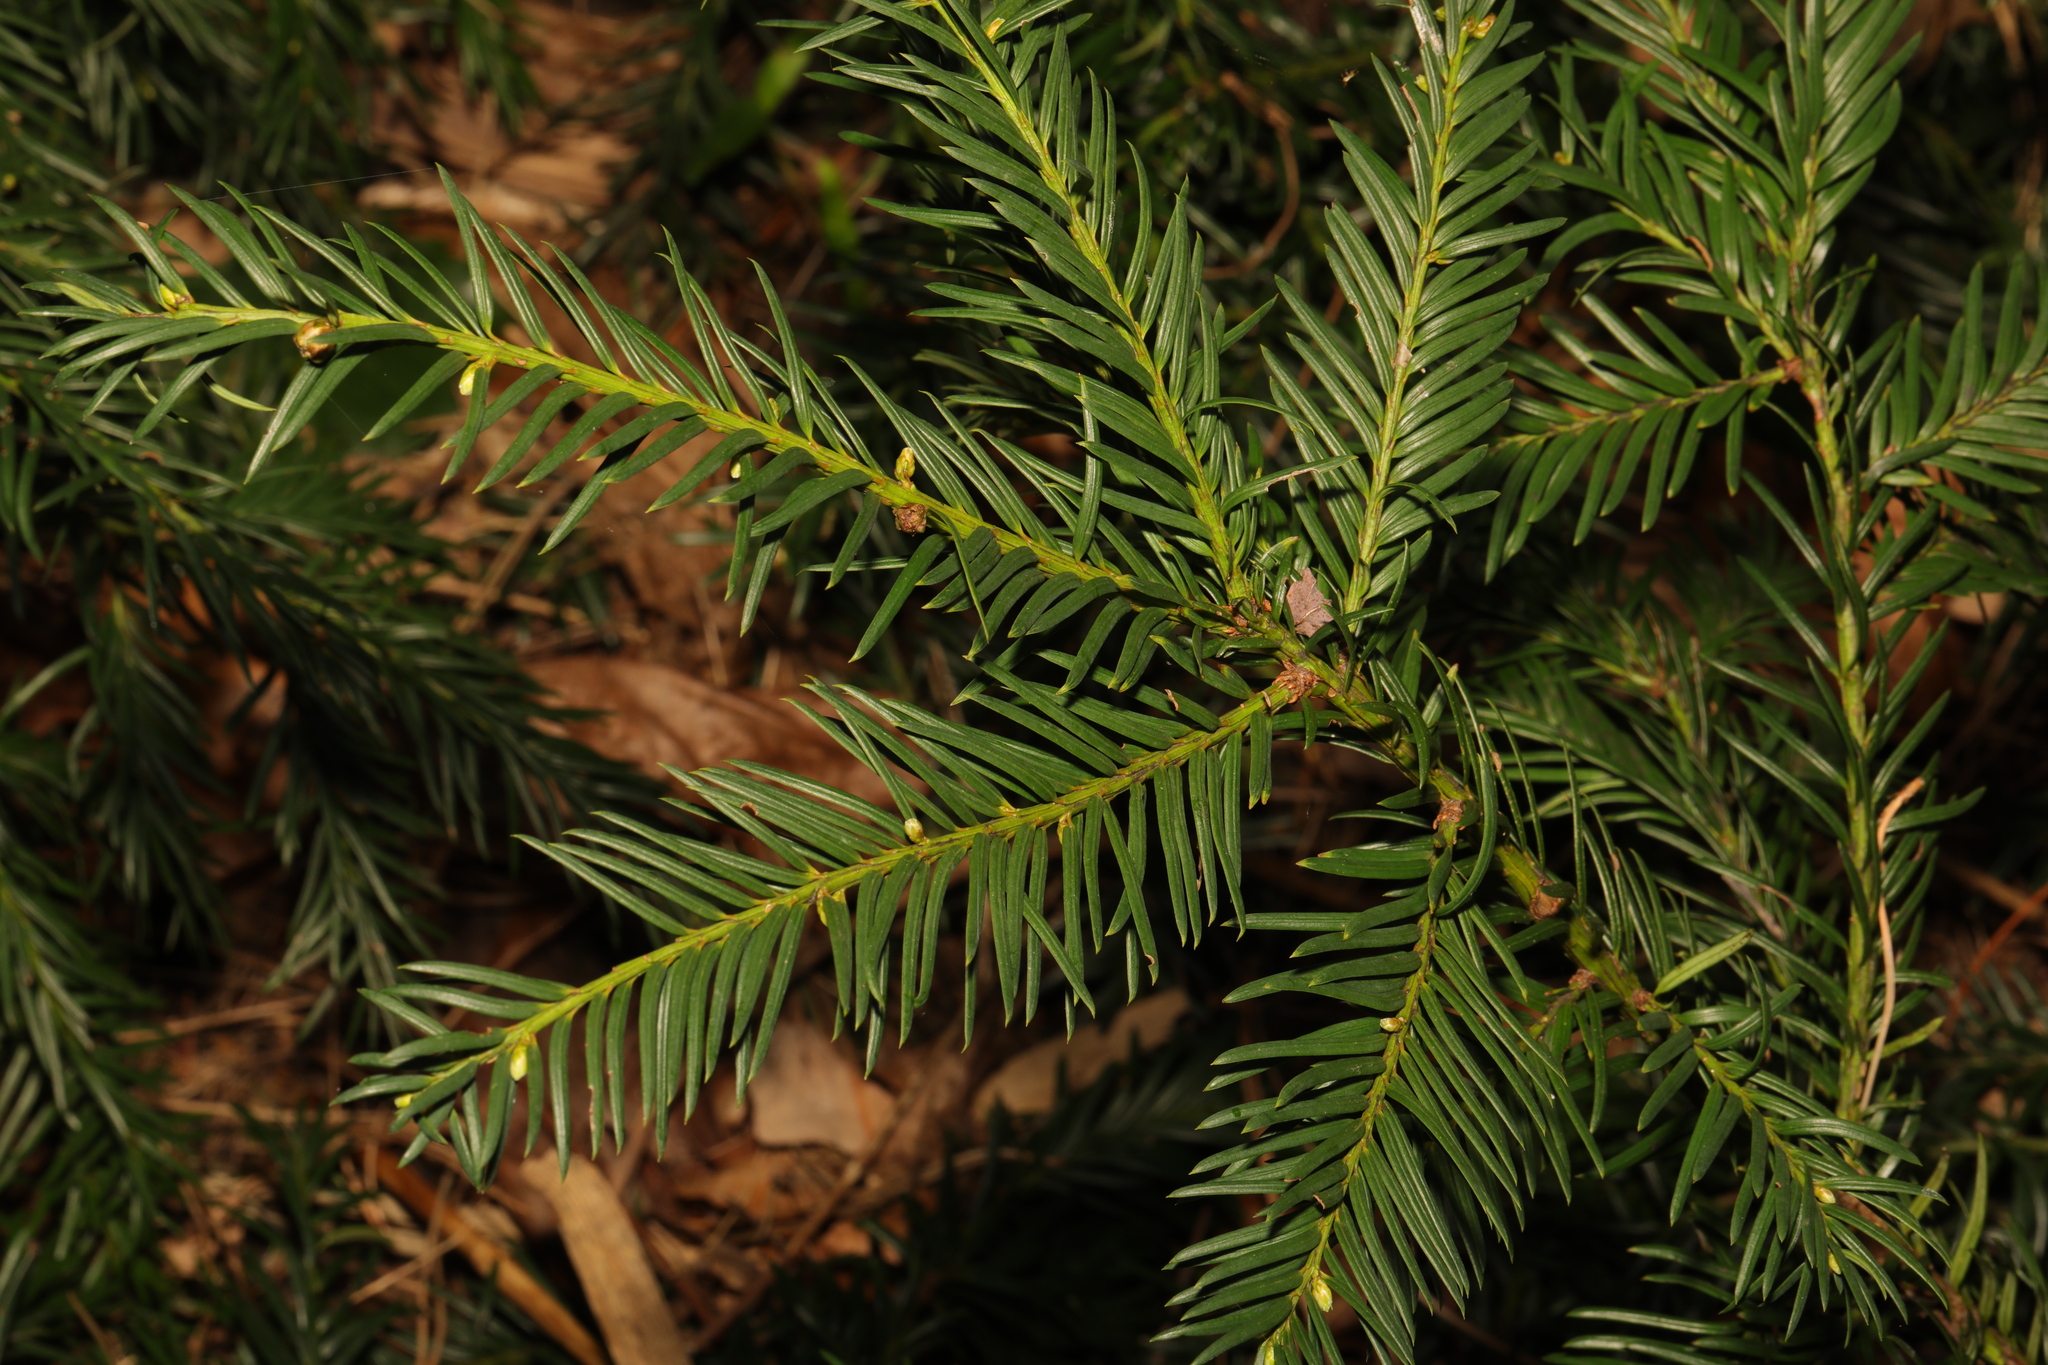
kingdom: Plantae
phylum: Tracheophyta
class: Pinopsida
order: Pinales
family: Taxaceae
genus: Taxus
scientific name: Taxus baccata
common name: Yew
